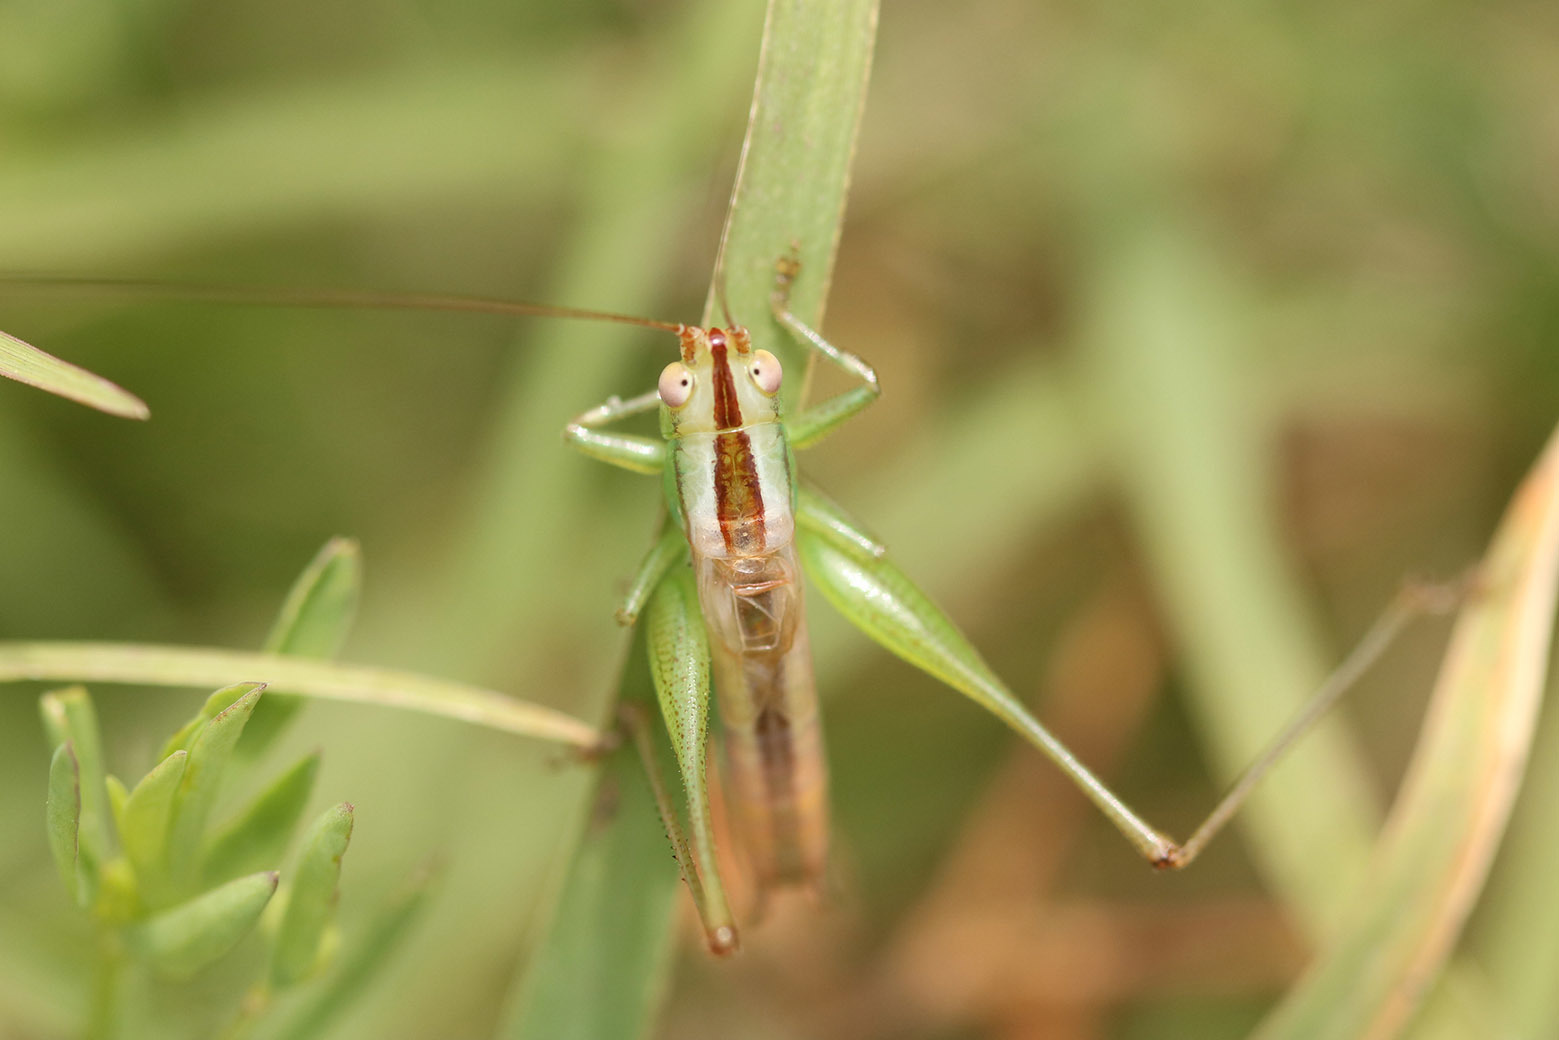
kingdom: Animalia
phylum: Arthropoda
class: Insecta
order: Orthoptera
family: Tettigoniidae
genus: Conocephalus
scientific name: Conocephalus doryphorus
